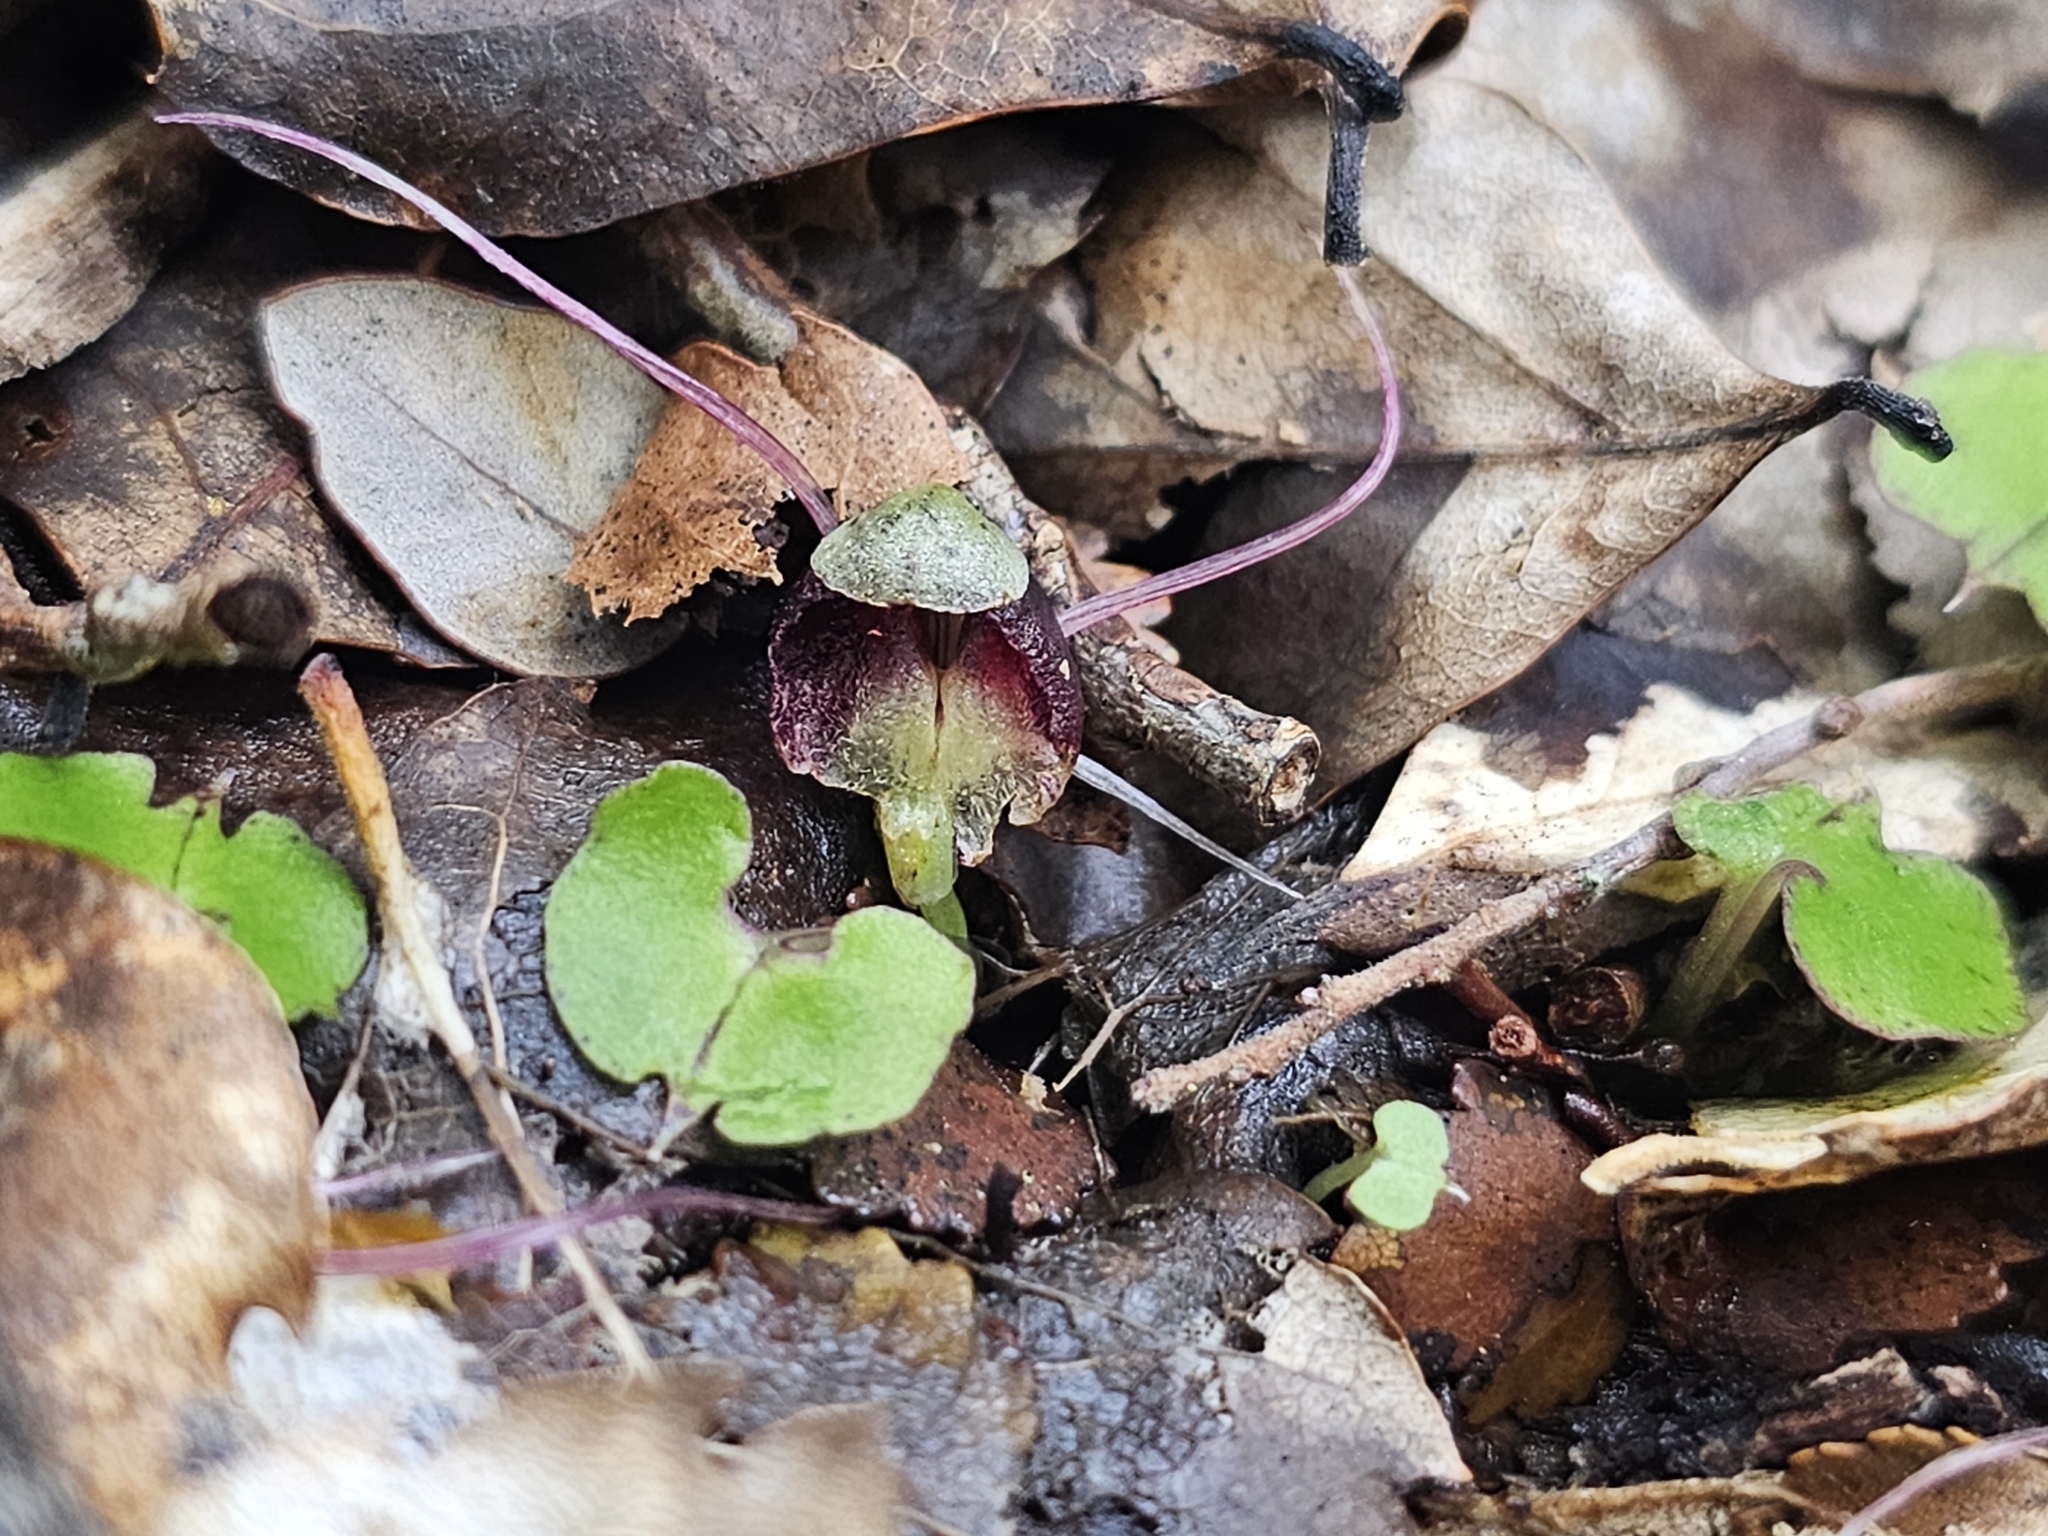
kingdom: Plantae
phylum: Tracheophyta
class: Liliopsida
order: Asparagales
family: Orchidaceae
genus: Corybas
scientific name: Corybas hypogaeus
